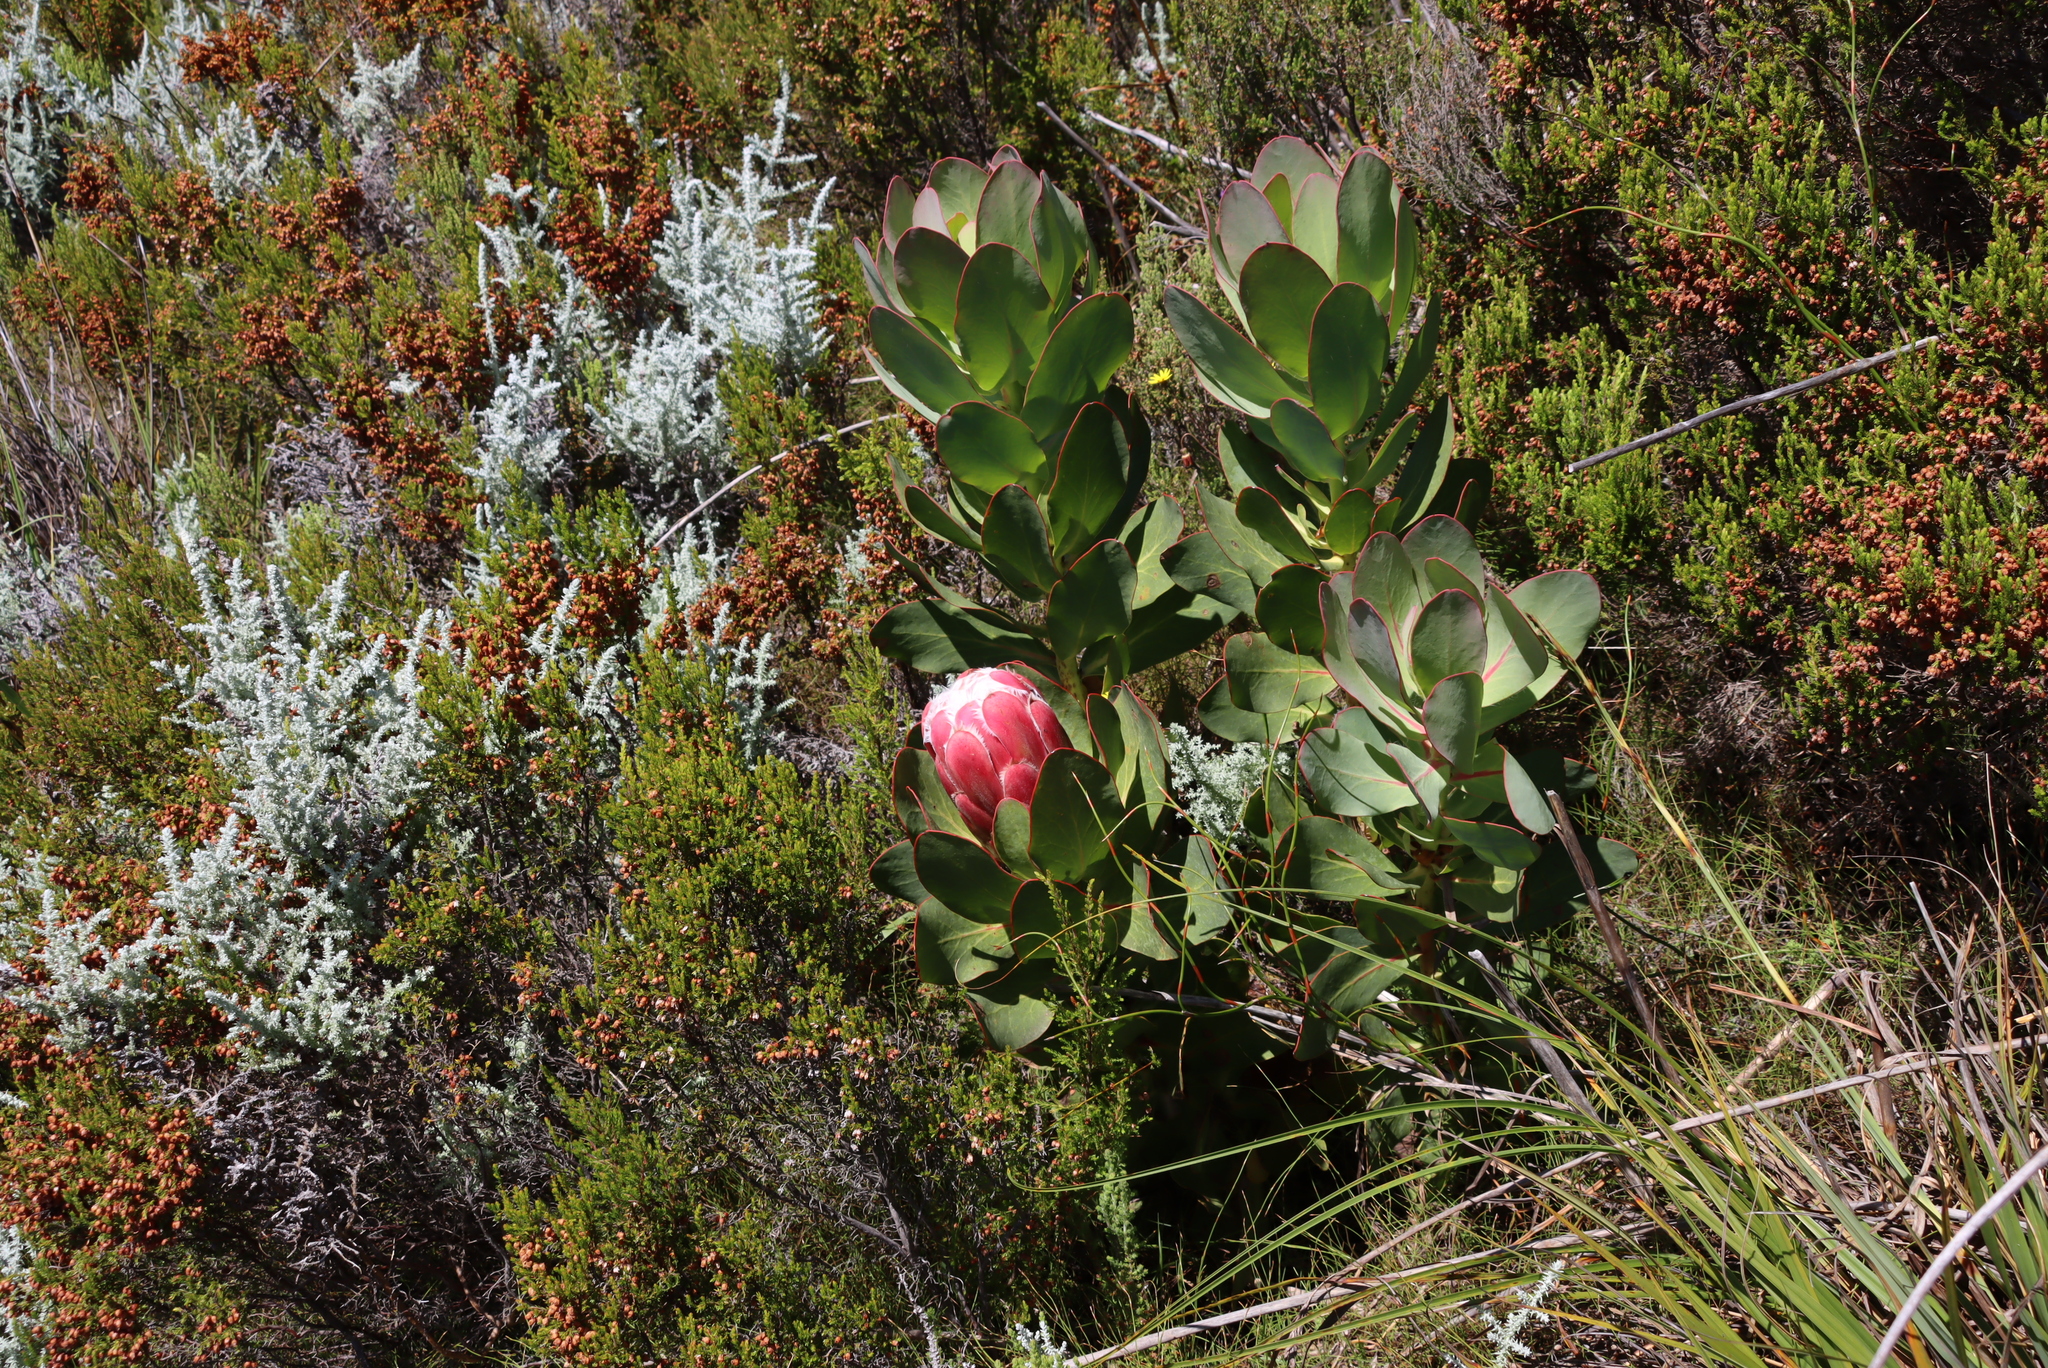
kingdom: Plantae
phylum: Tracheophyta
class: Magnoliopsida
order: Proteales
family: Proteaceae
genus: Protea
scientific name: Protea grandiceps
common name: Red sugarbush
